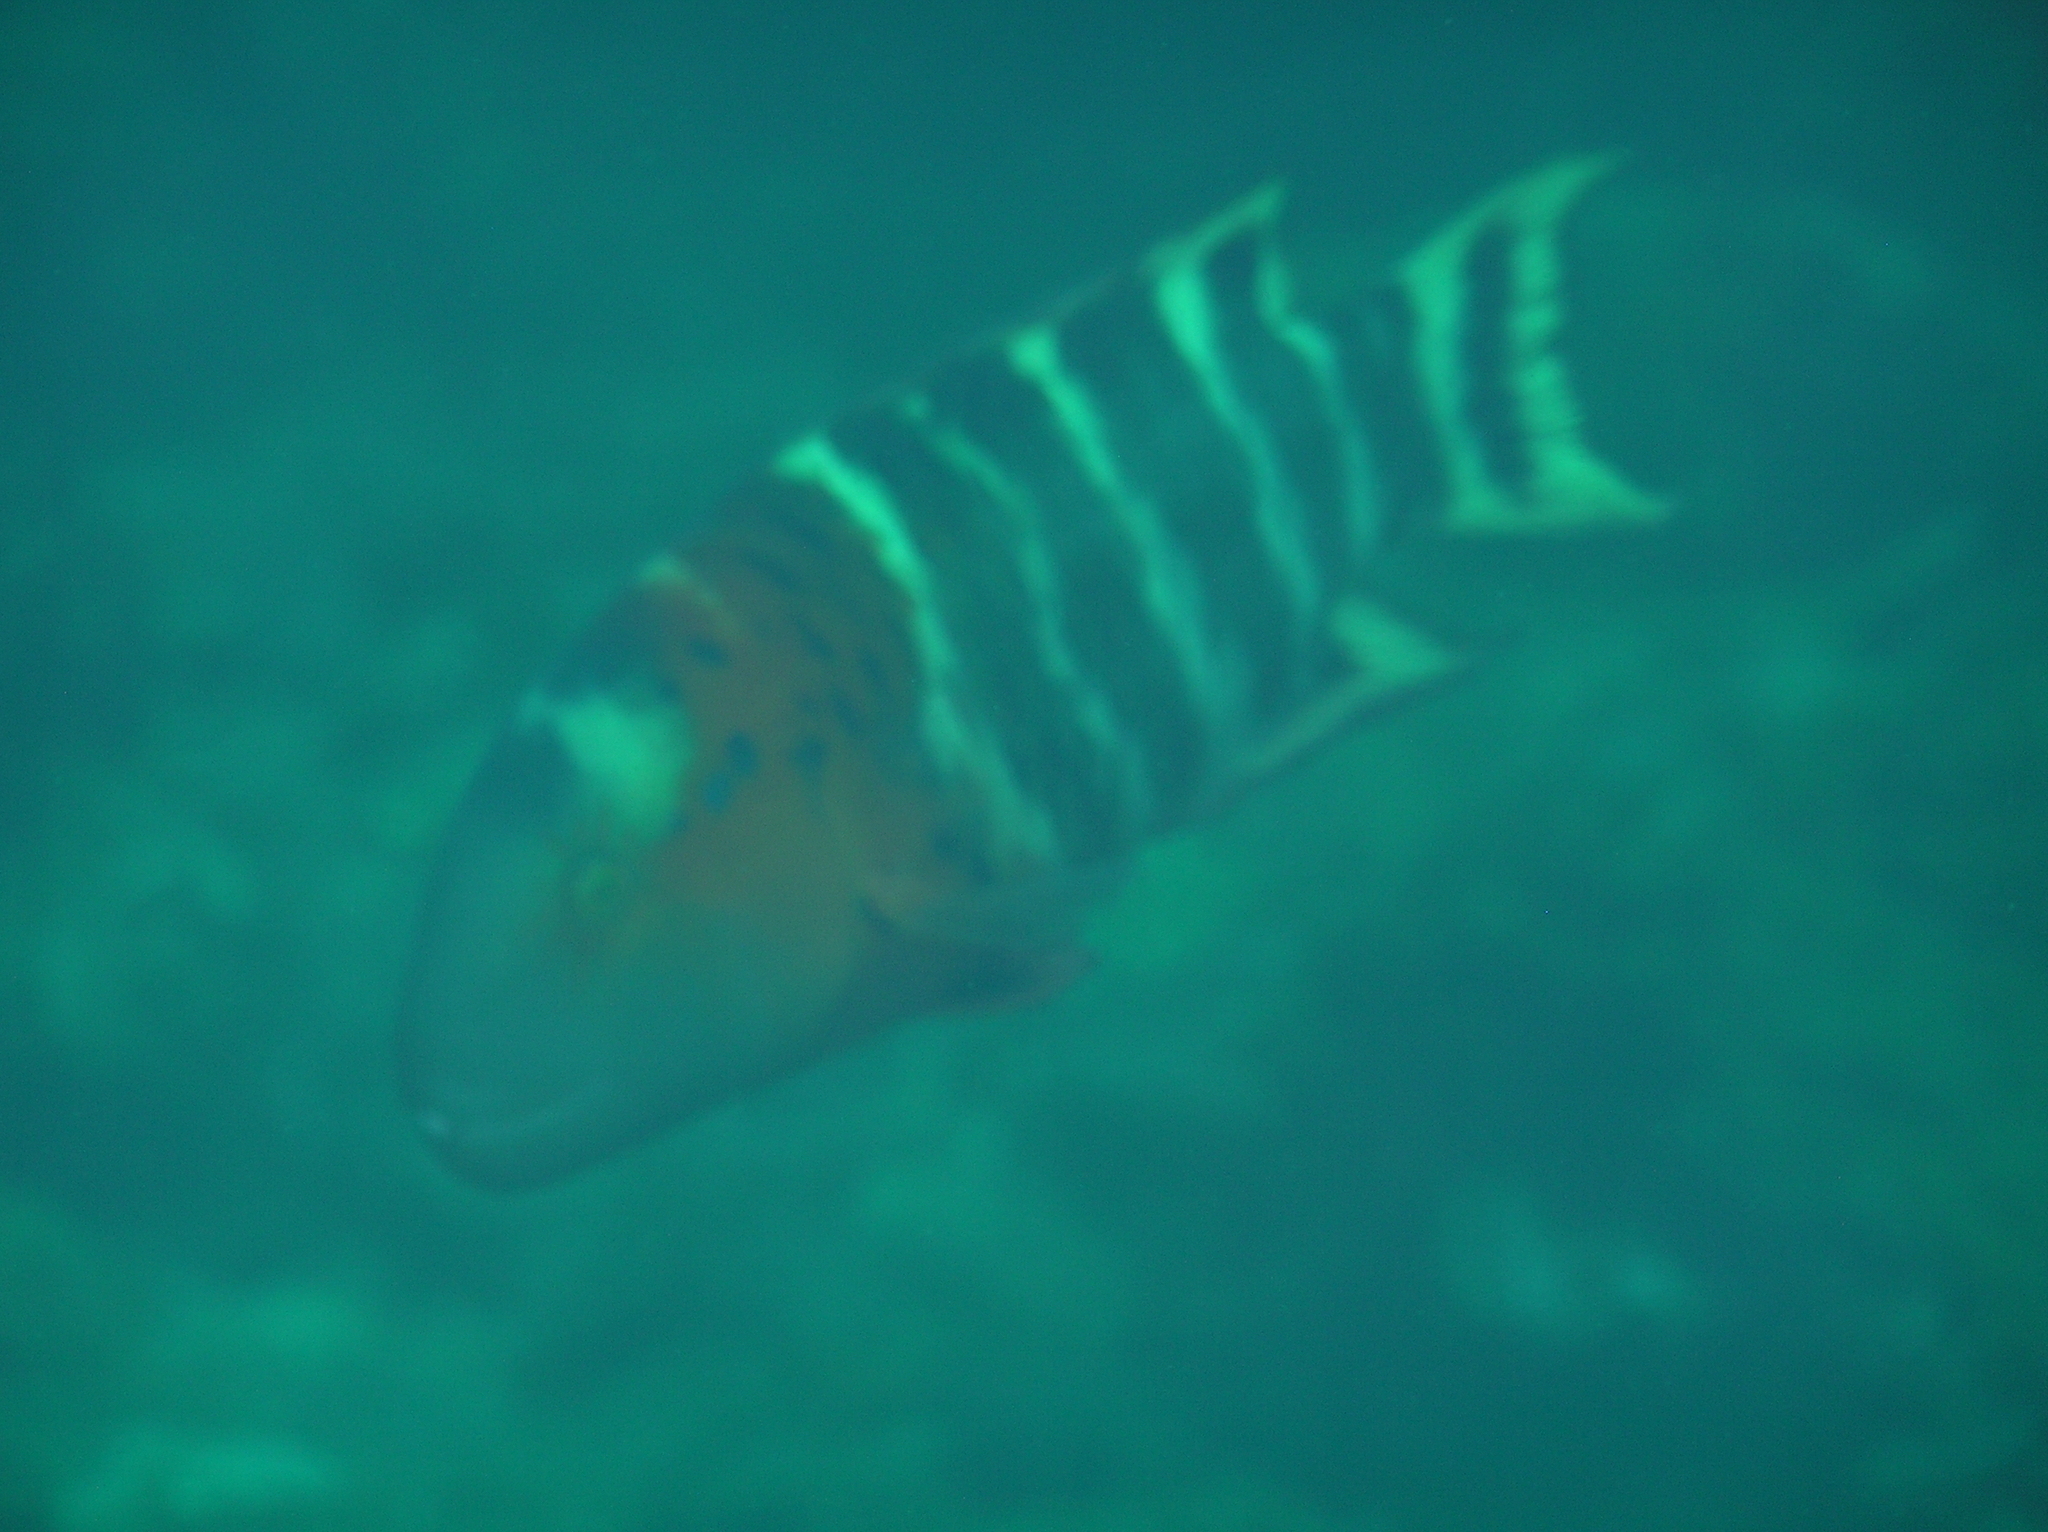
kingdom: Animalia
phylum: Chordata
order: Perciformes
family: Labridae
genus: Cheilinus
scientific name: Cheilinus fasciatus
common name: Red-breasted wrasse
